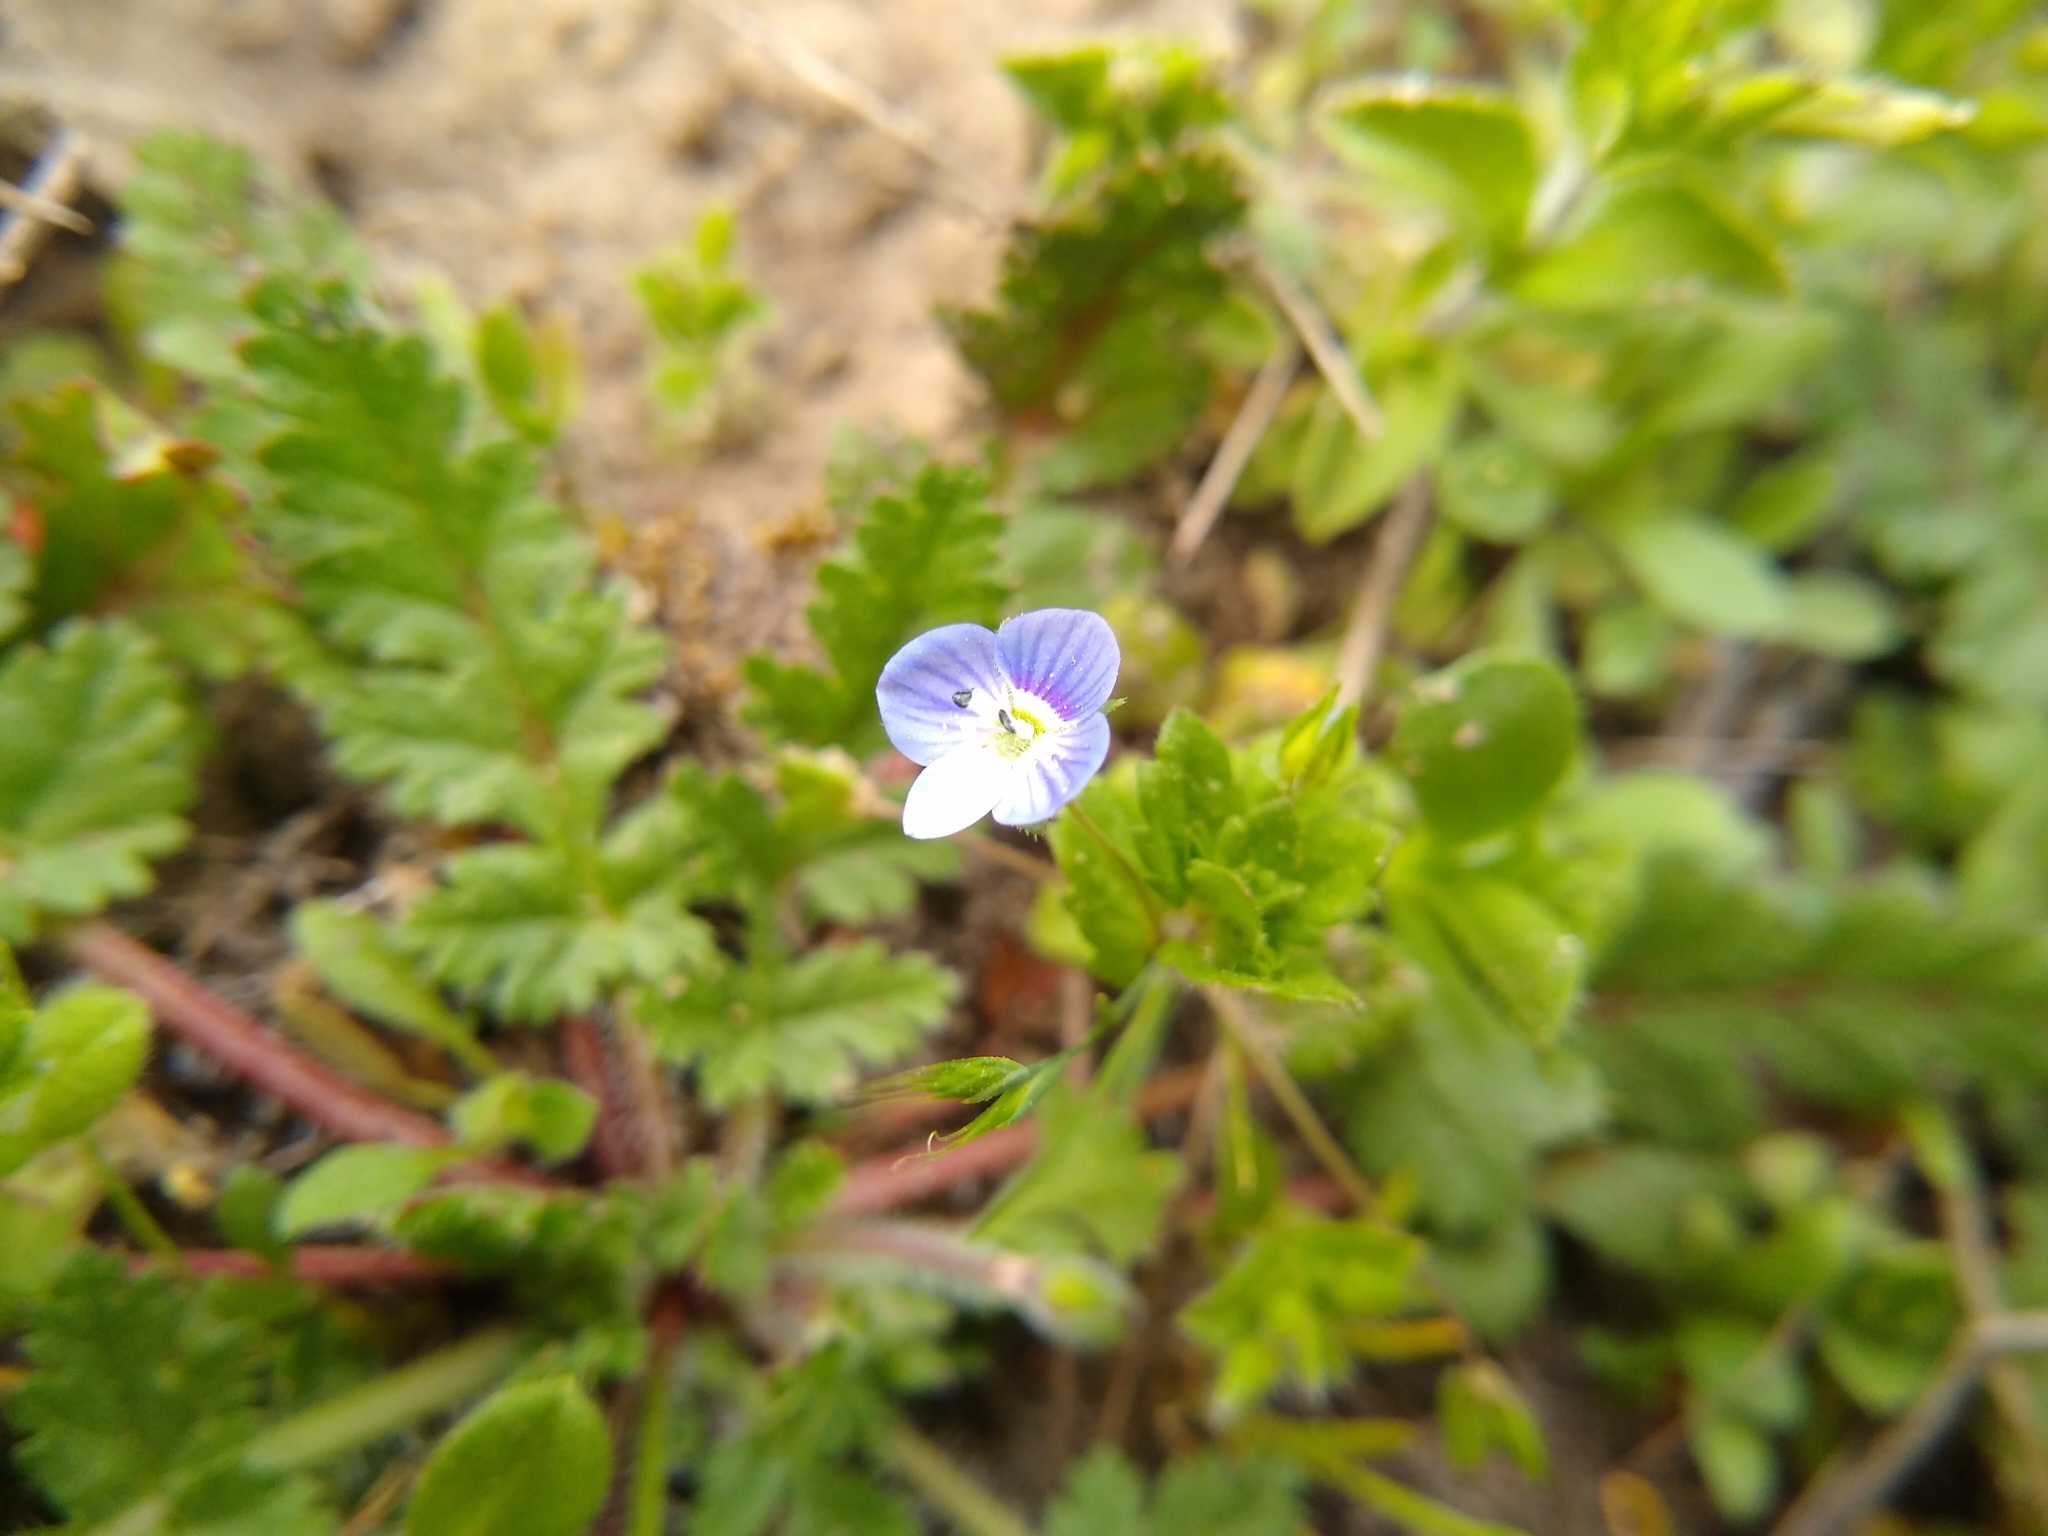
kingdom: Plantae
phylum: Tracheophyta
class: Magnoliopsida
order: Lamiales
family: Plantaginaceae
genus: Veronica
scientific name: Veronica persica
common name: Common field-speedwell
